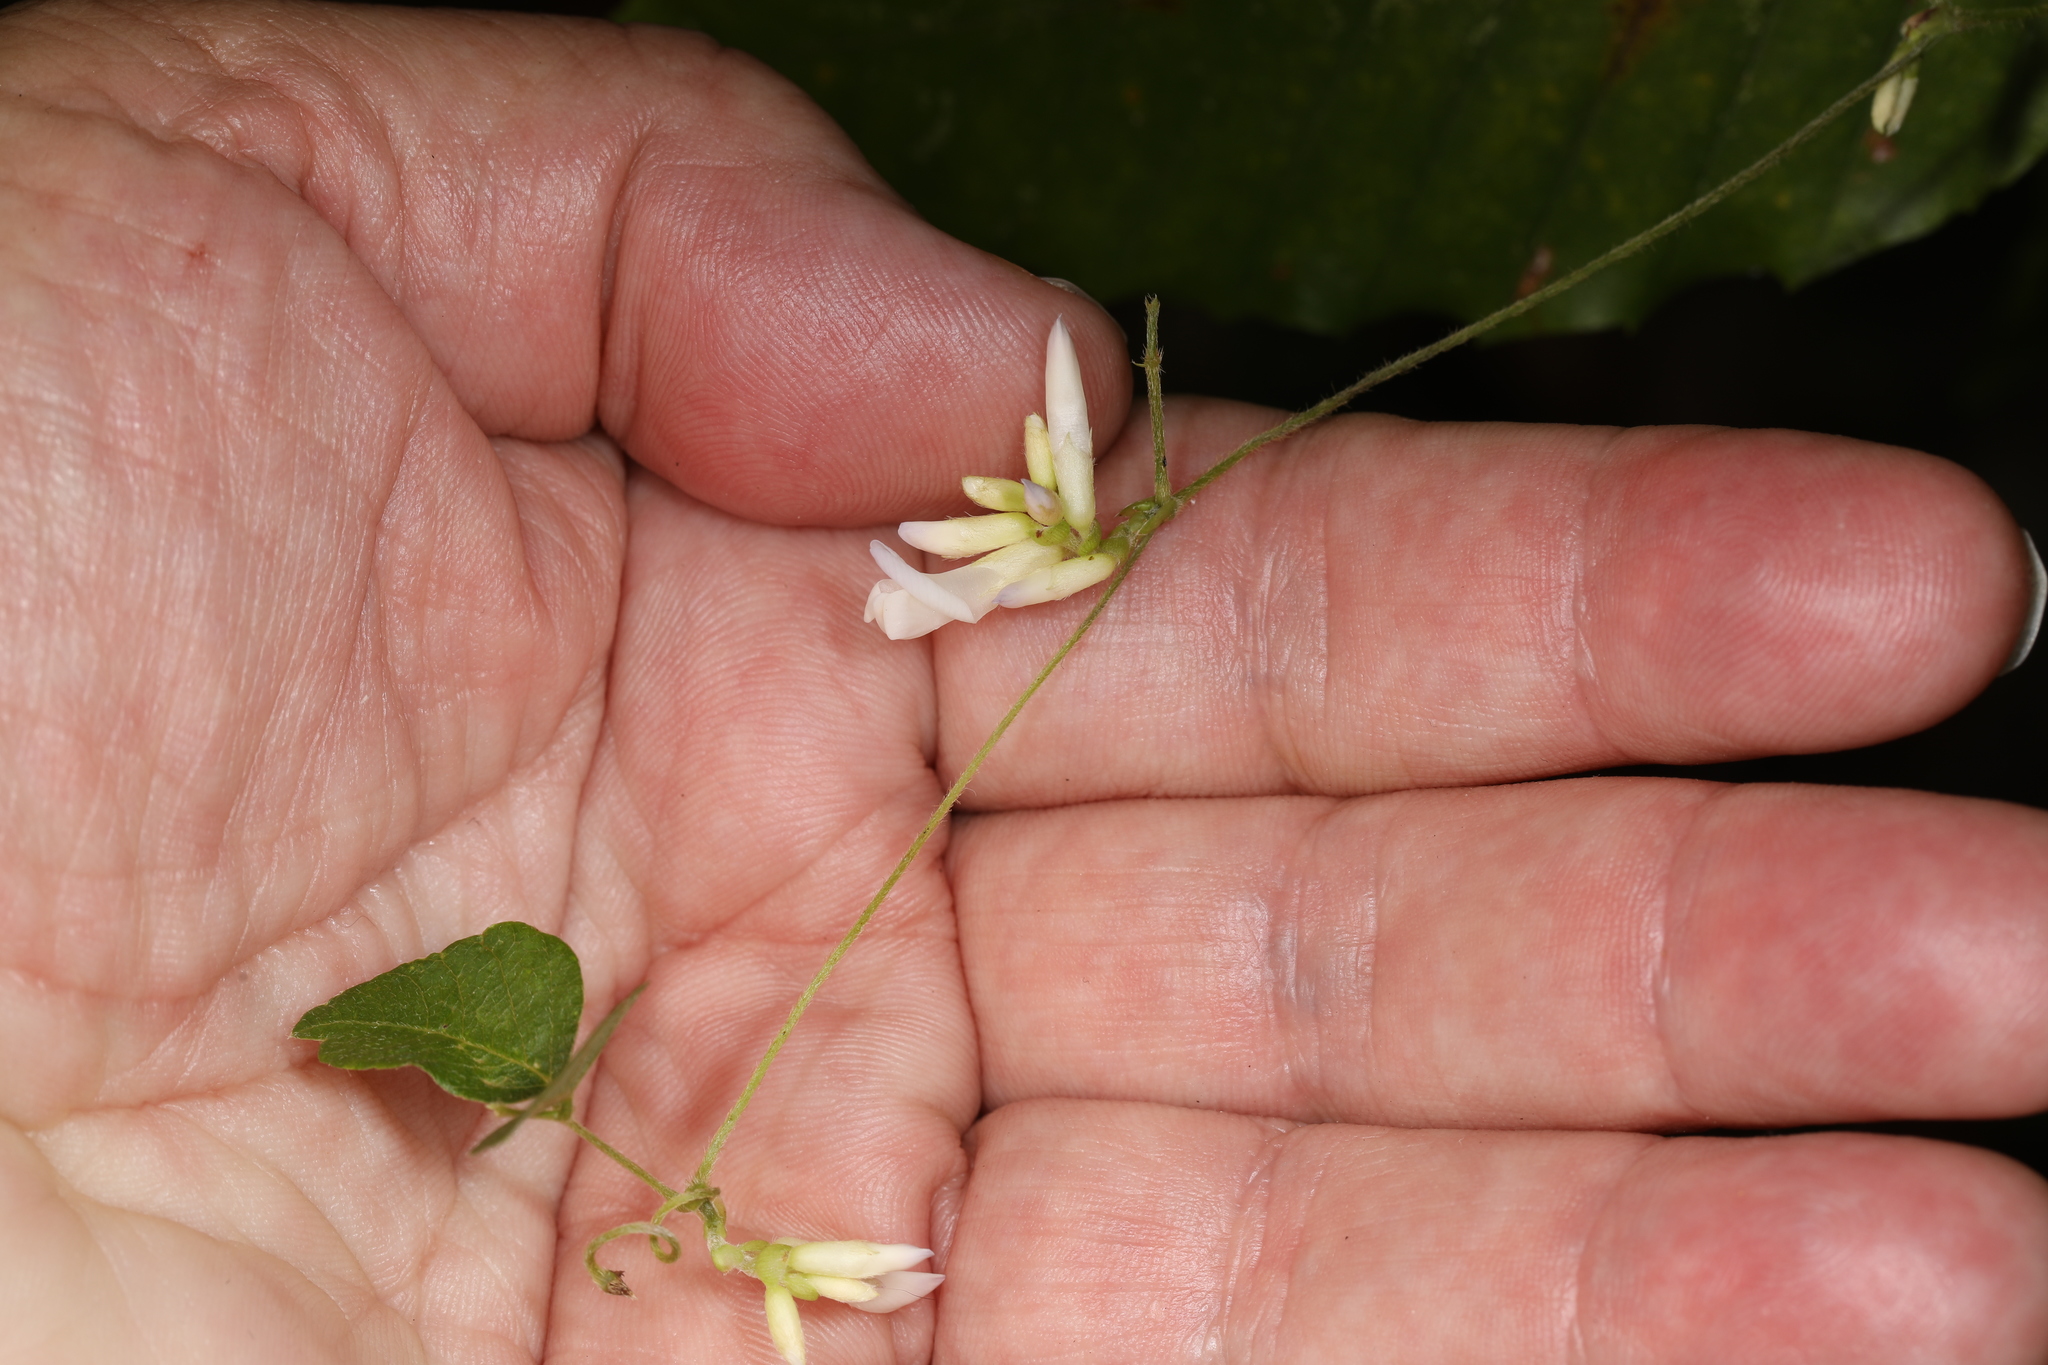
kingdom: Plantae
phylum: Tracheophyta
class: Magnoliopsida
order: Fabales
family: Fabaceae
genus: Amphicarpaea
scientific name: Amphicarpaea bracteata
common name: American hog peanut
